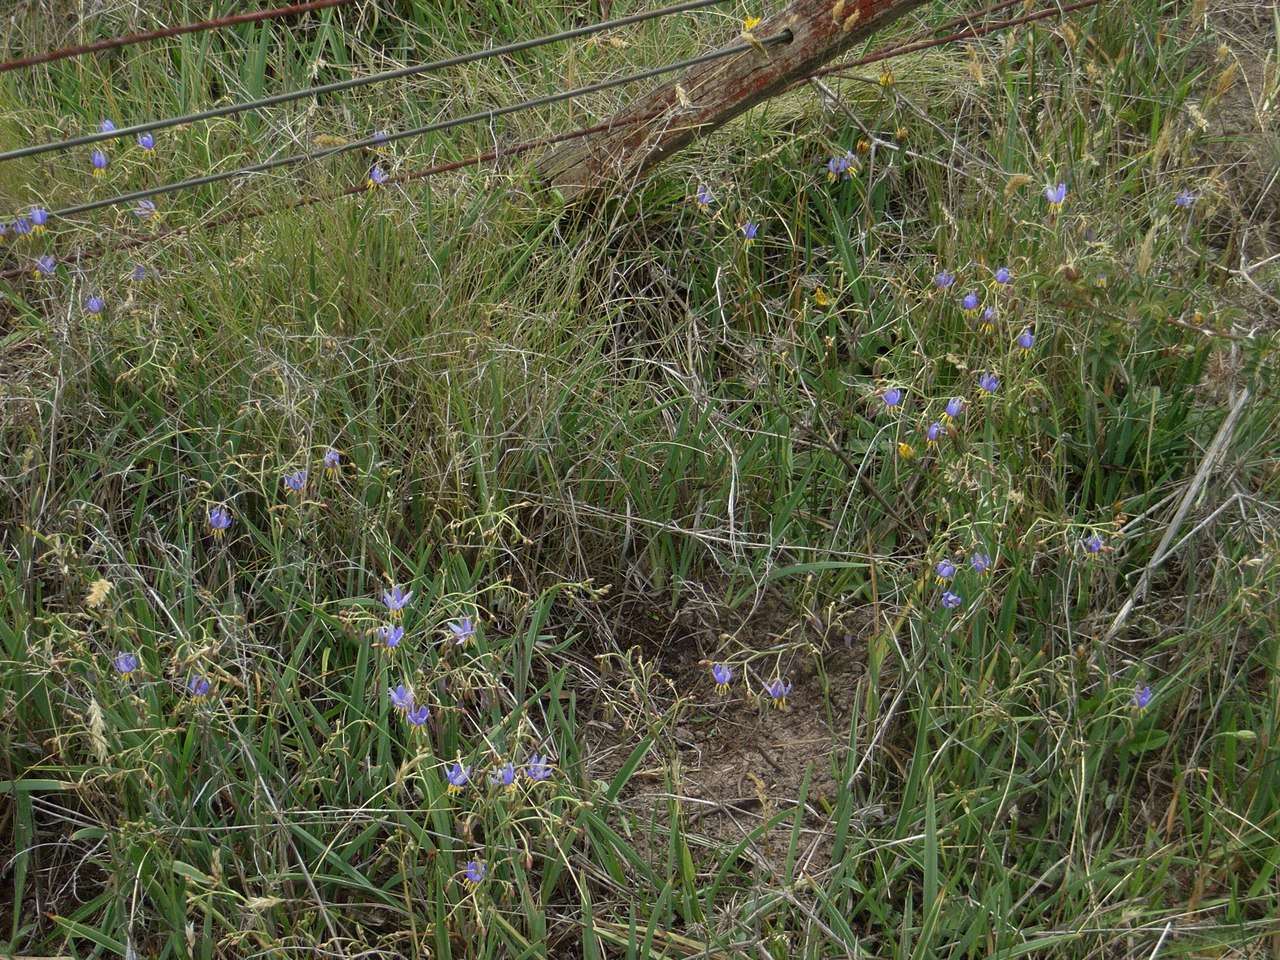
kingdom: Plantae
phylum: Tracheophyta
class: Liliopsida
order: Asparagales
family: Asphodelaceae
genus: Dianella
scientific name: Dianella amoena
